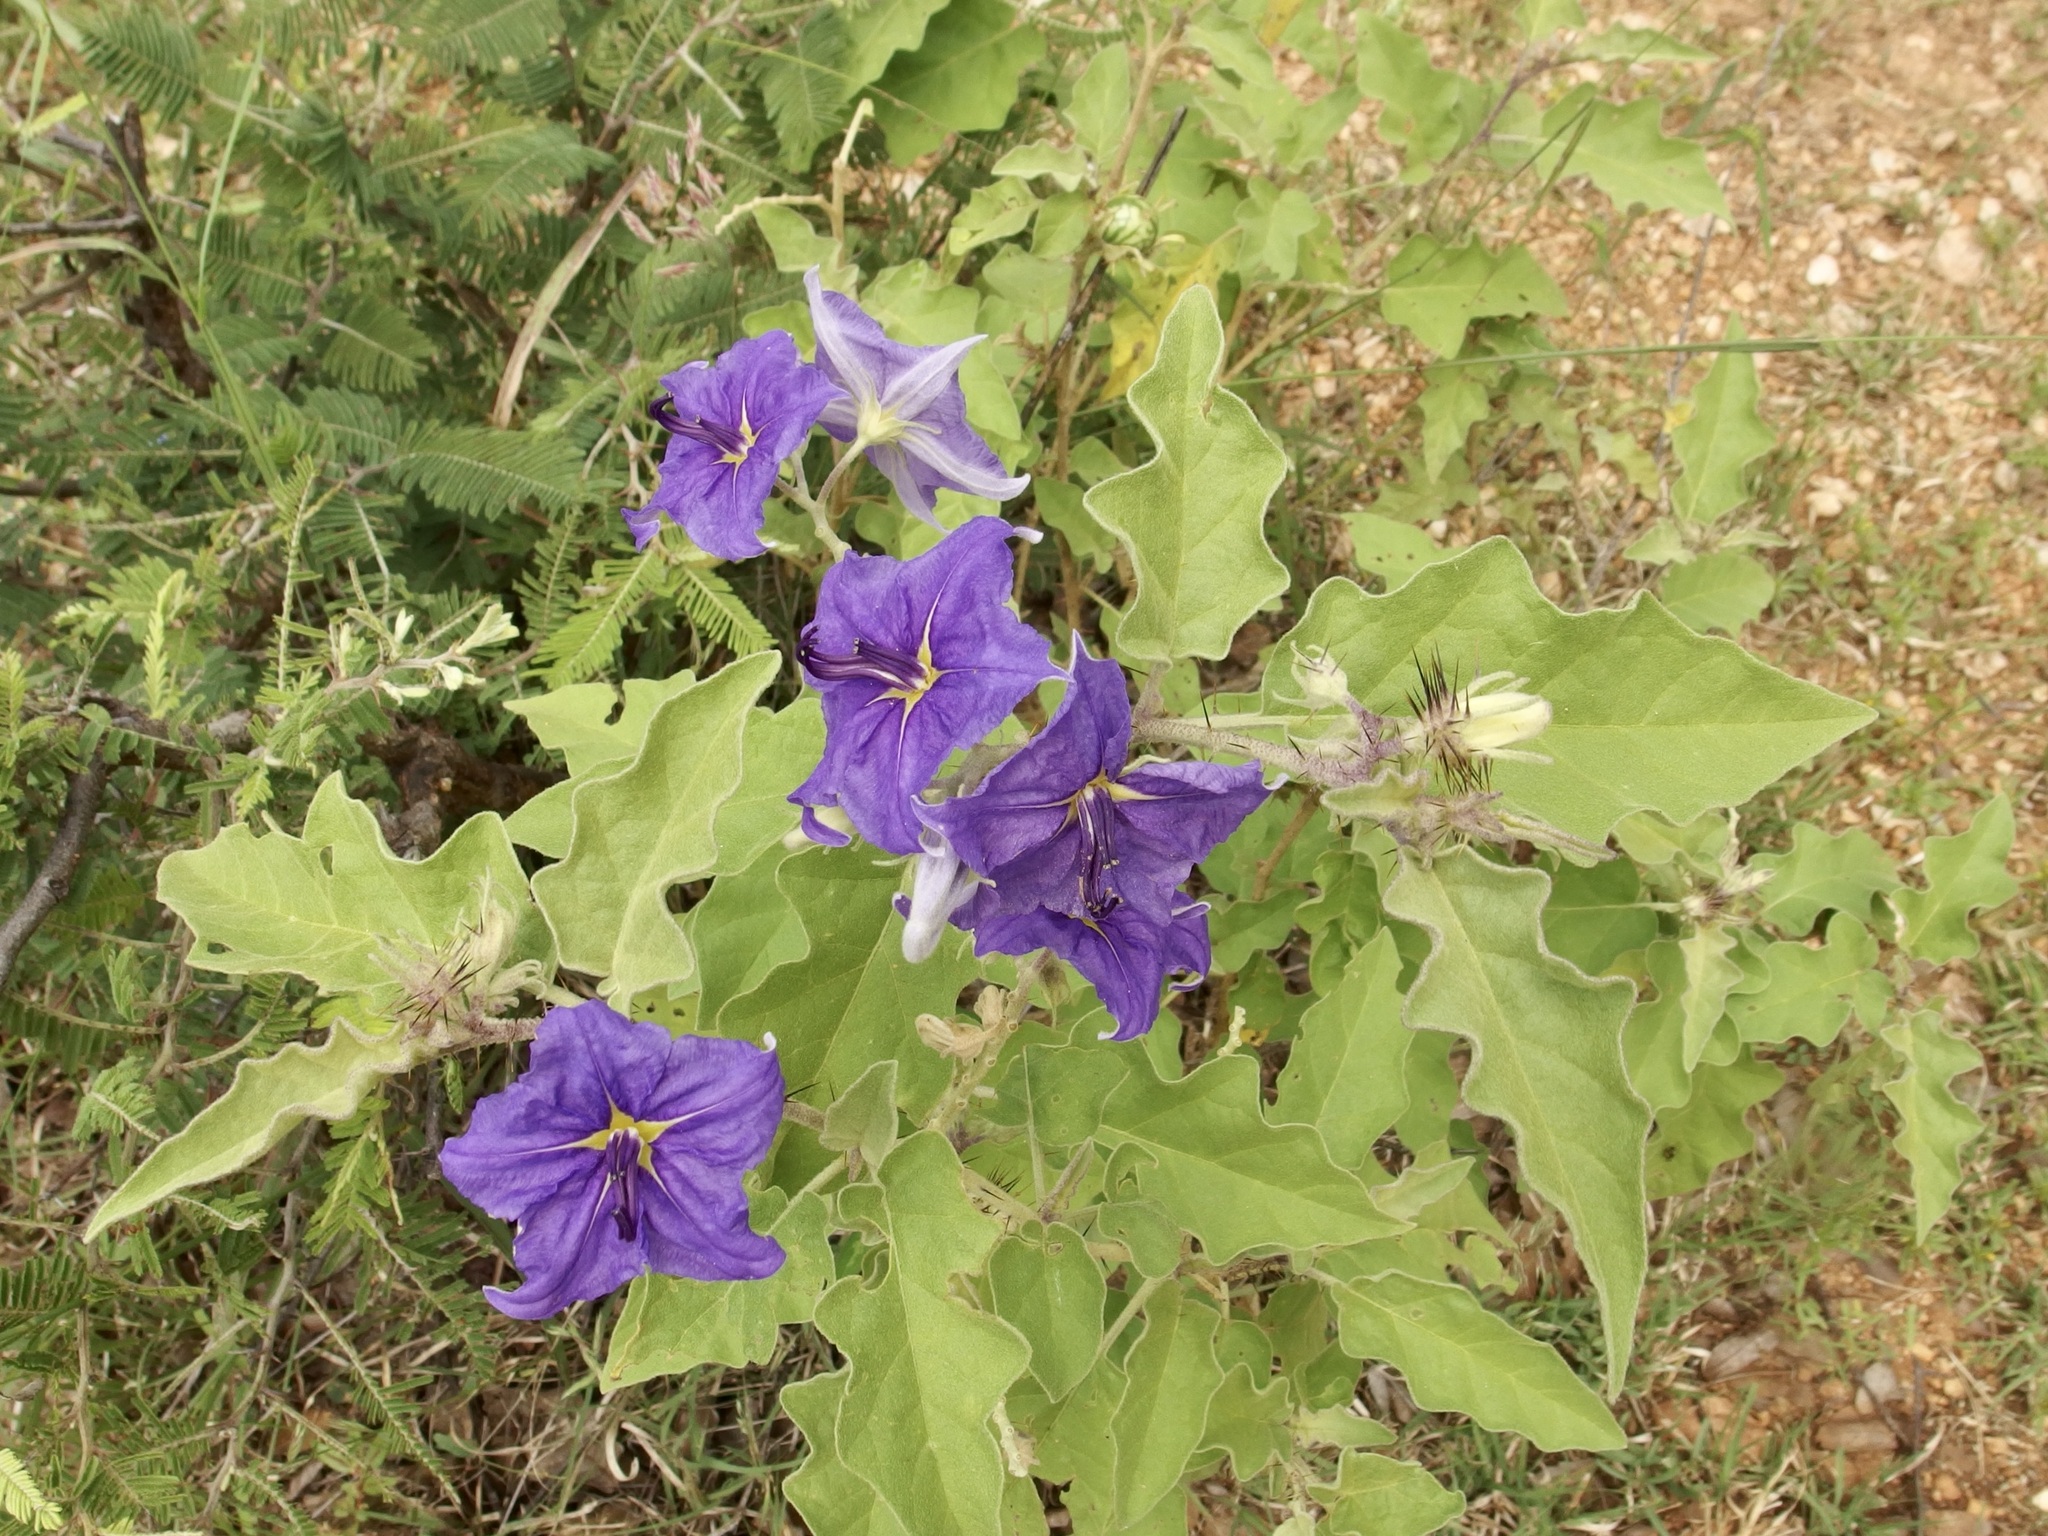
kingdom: Plantae
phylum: Tracheophyta
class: Magnoliopsida
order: Solanales
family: Solanaceae
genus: Solanum
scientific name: Solanum houstonii
